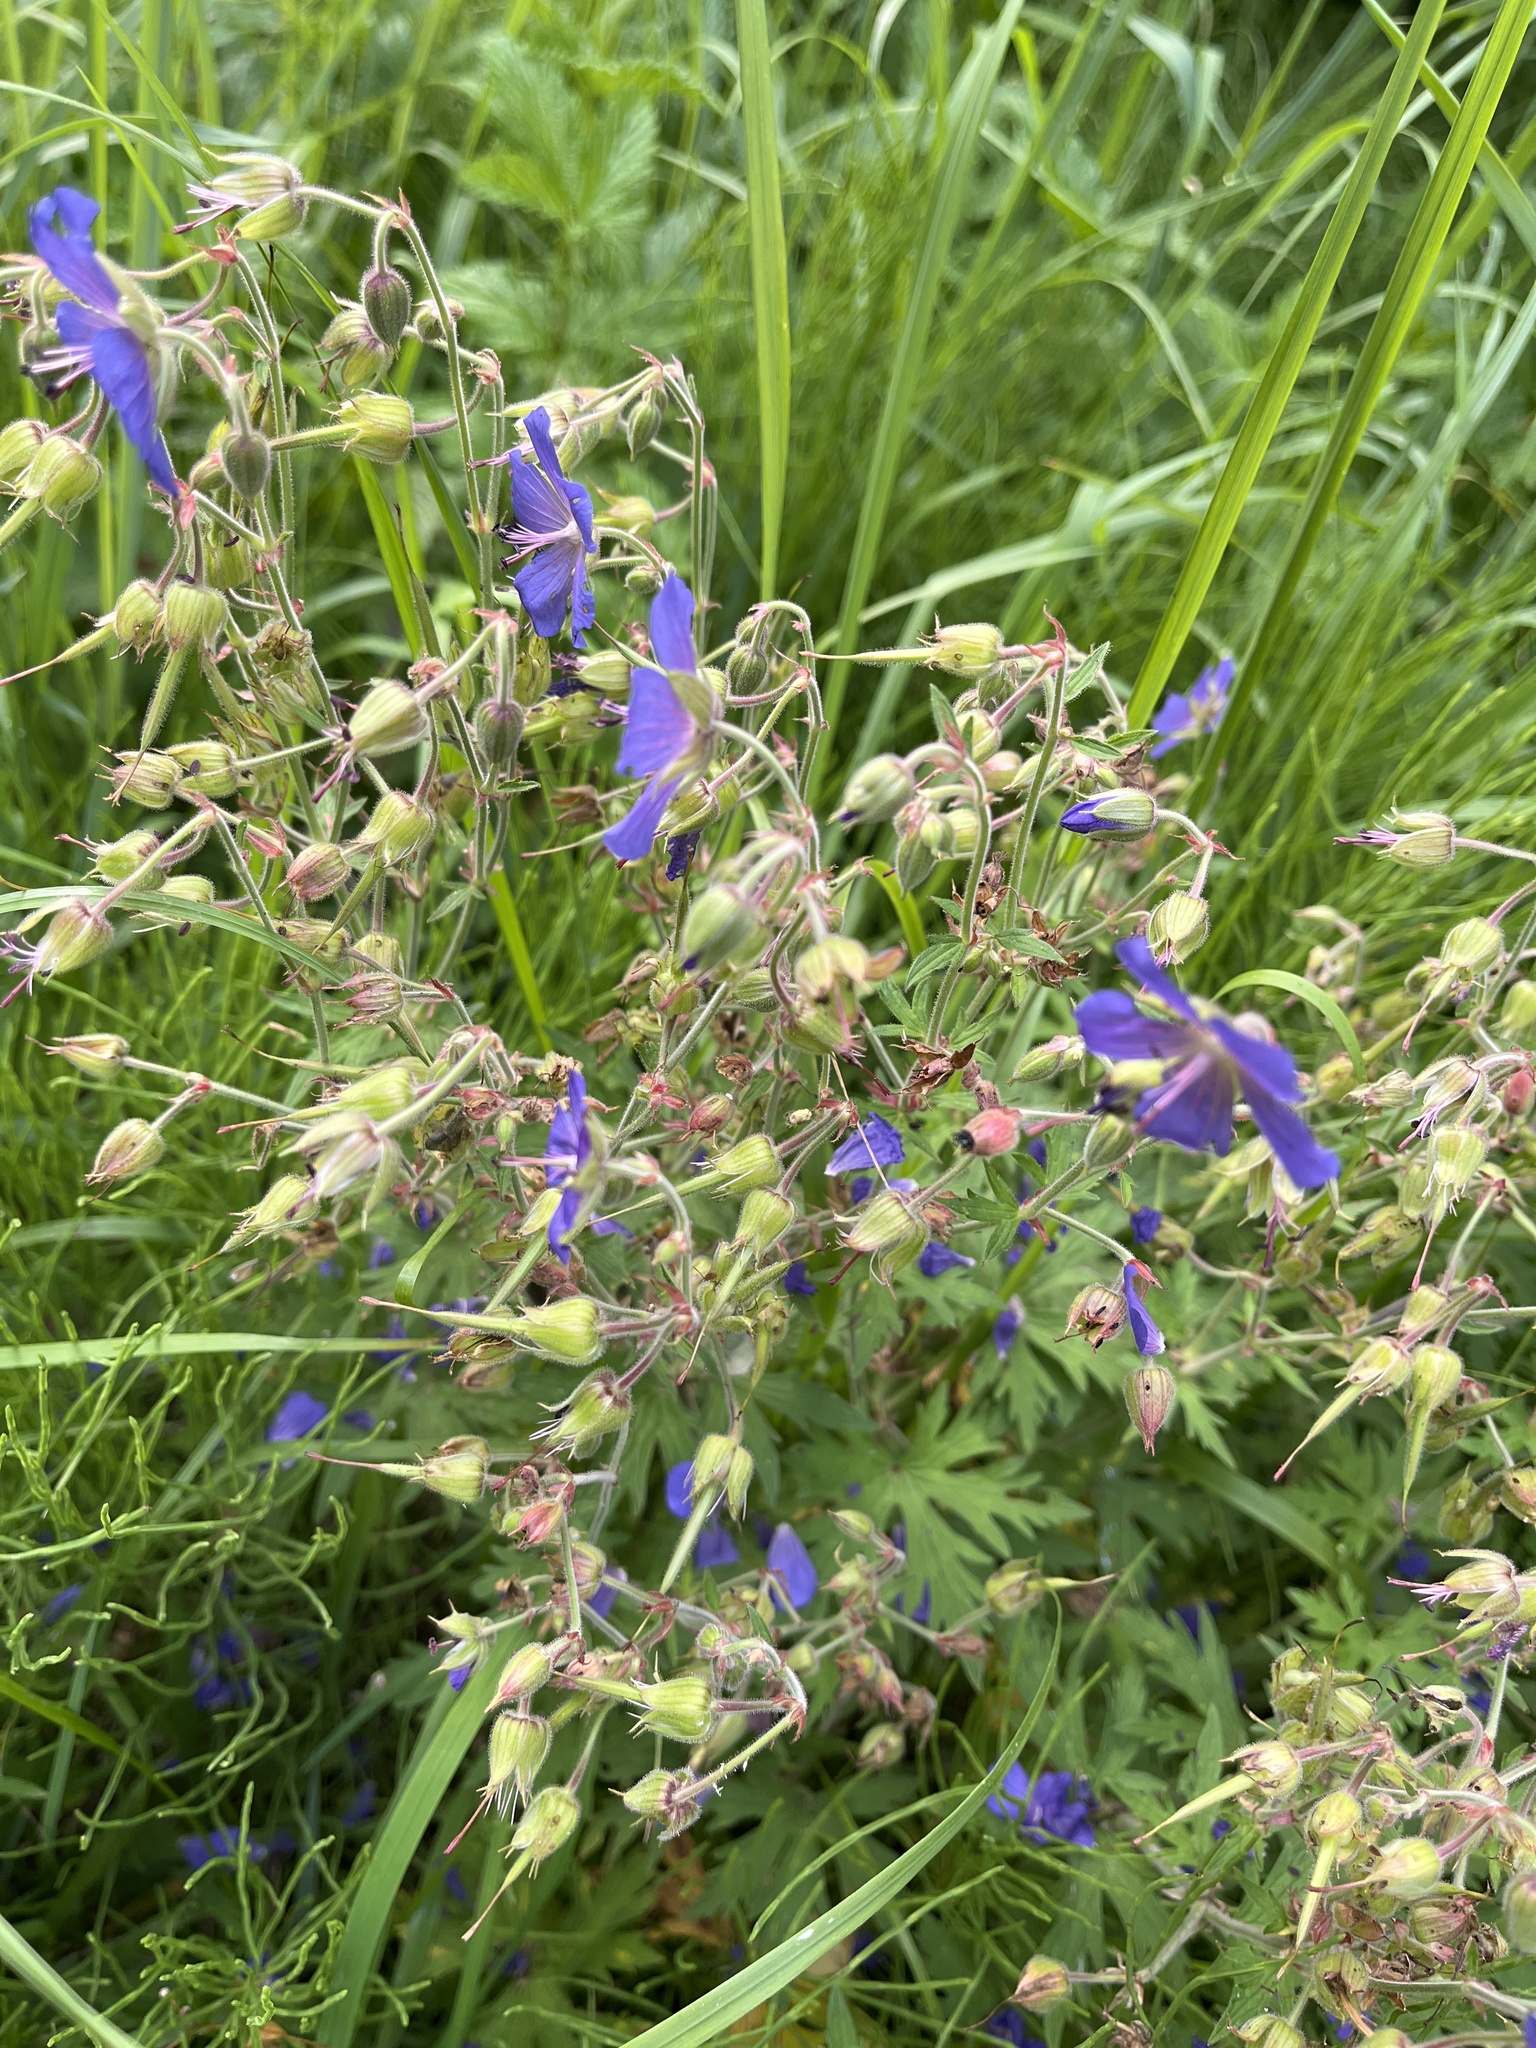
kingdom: Plantae
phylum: Tracheophyta
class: Magnoliopsida
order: Geraniales
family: Geraniaceae
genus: Geranium
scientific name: Geranium pratense
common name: Meadow crane's-bill
